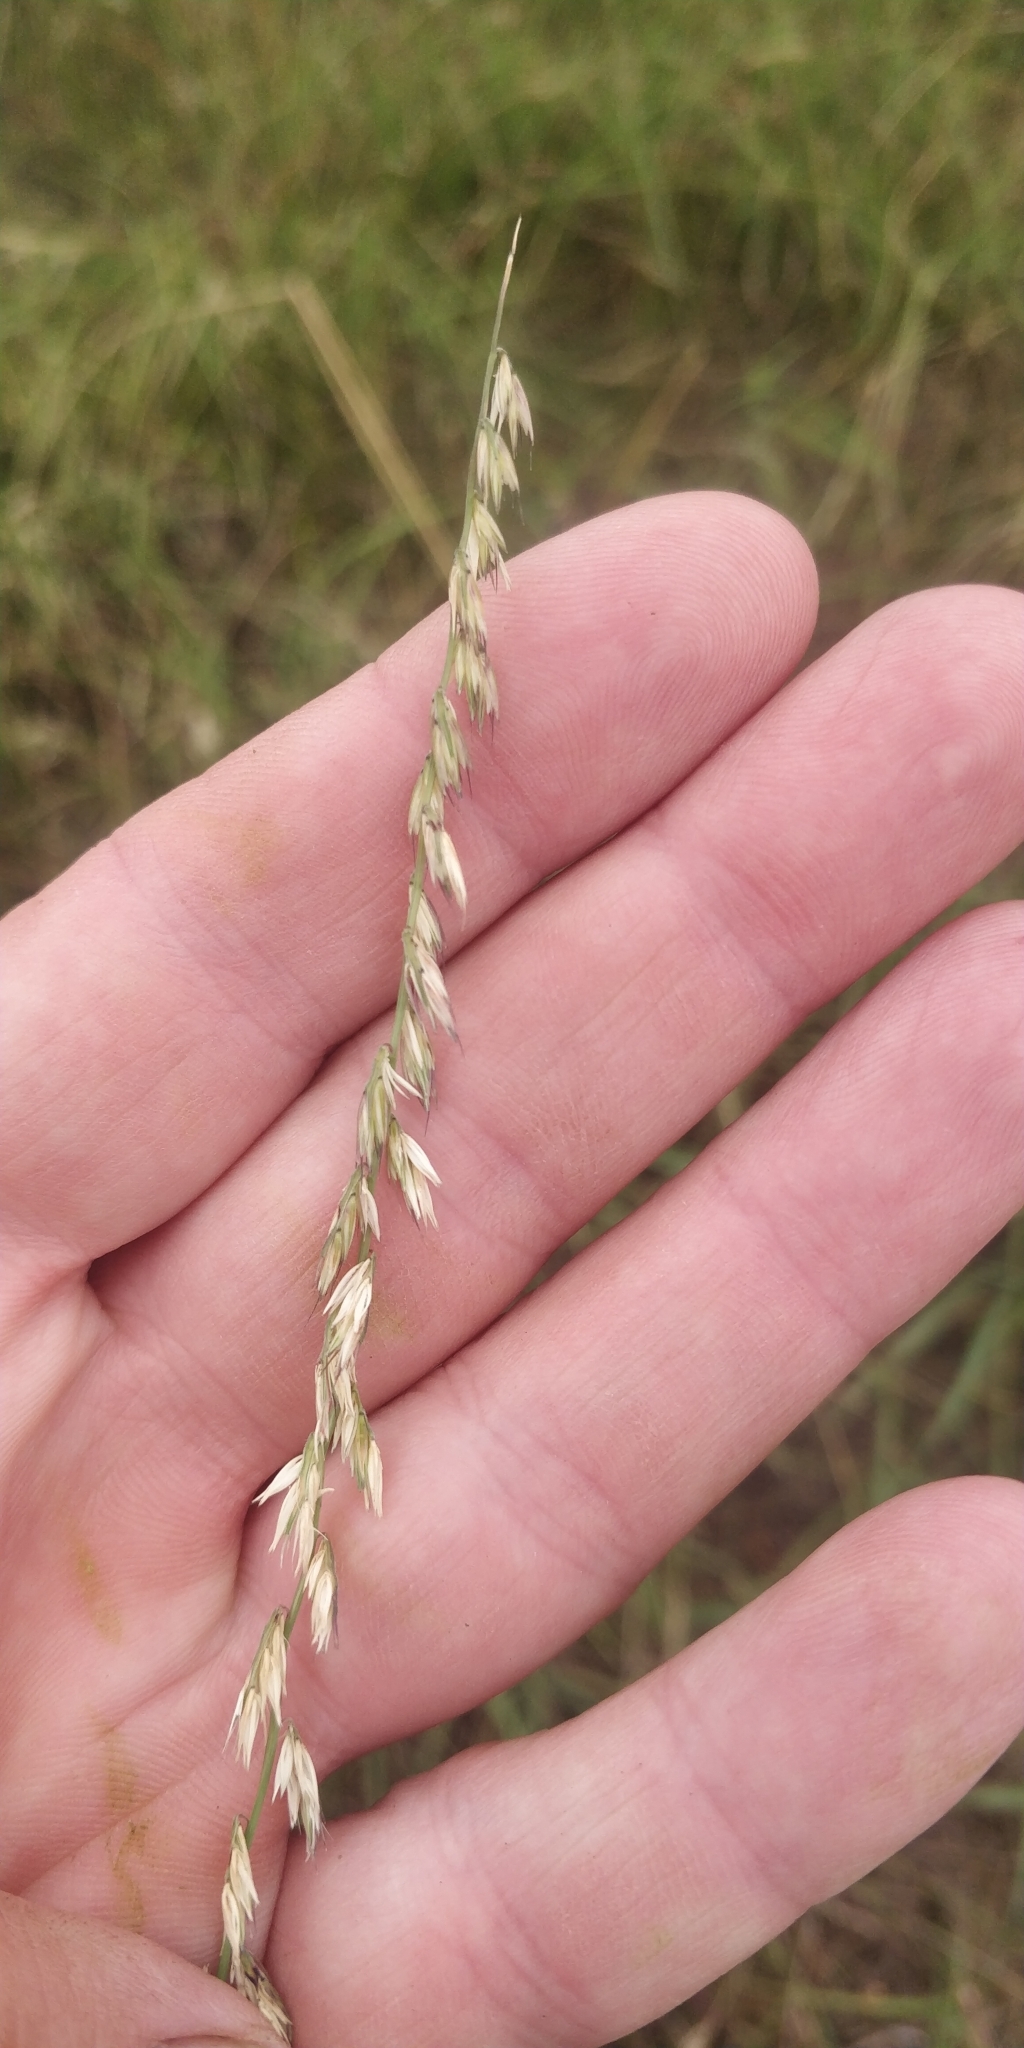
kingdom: Plantae
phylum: Tracheophyta
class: Liliopsida
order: Poales
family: Poaceae
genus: Bouteloua
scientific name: Bouteloua curtipendula
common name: Side-oats grama
